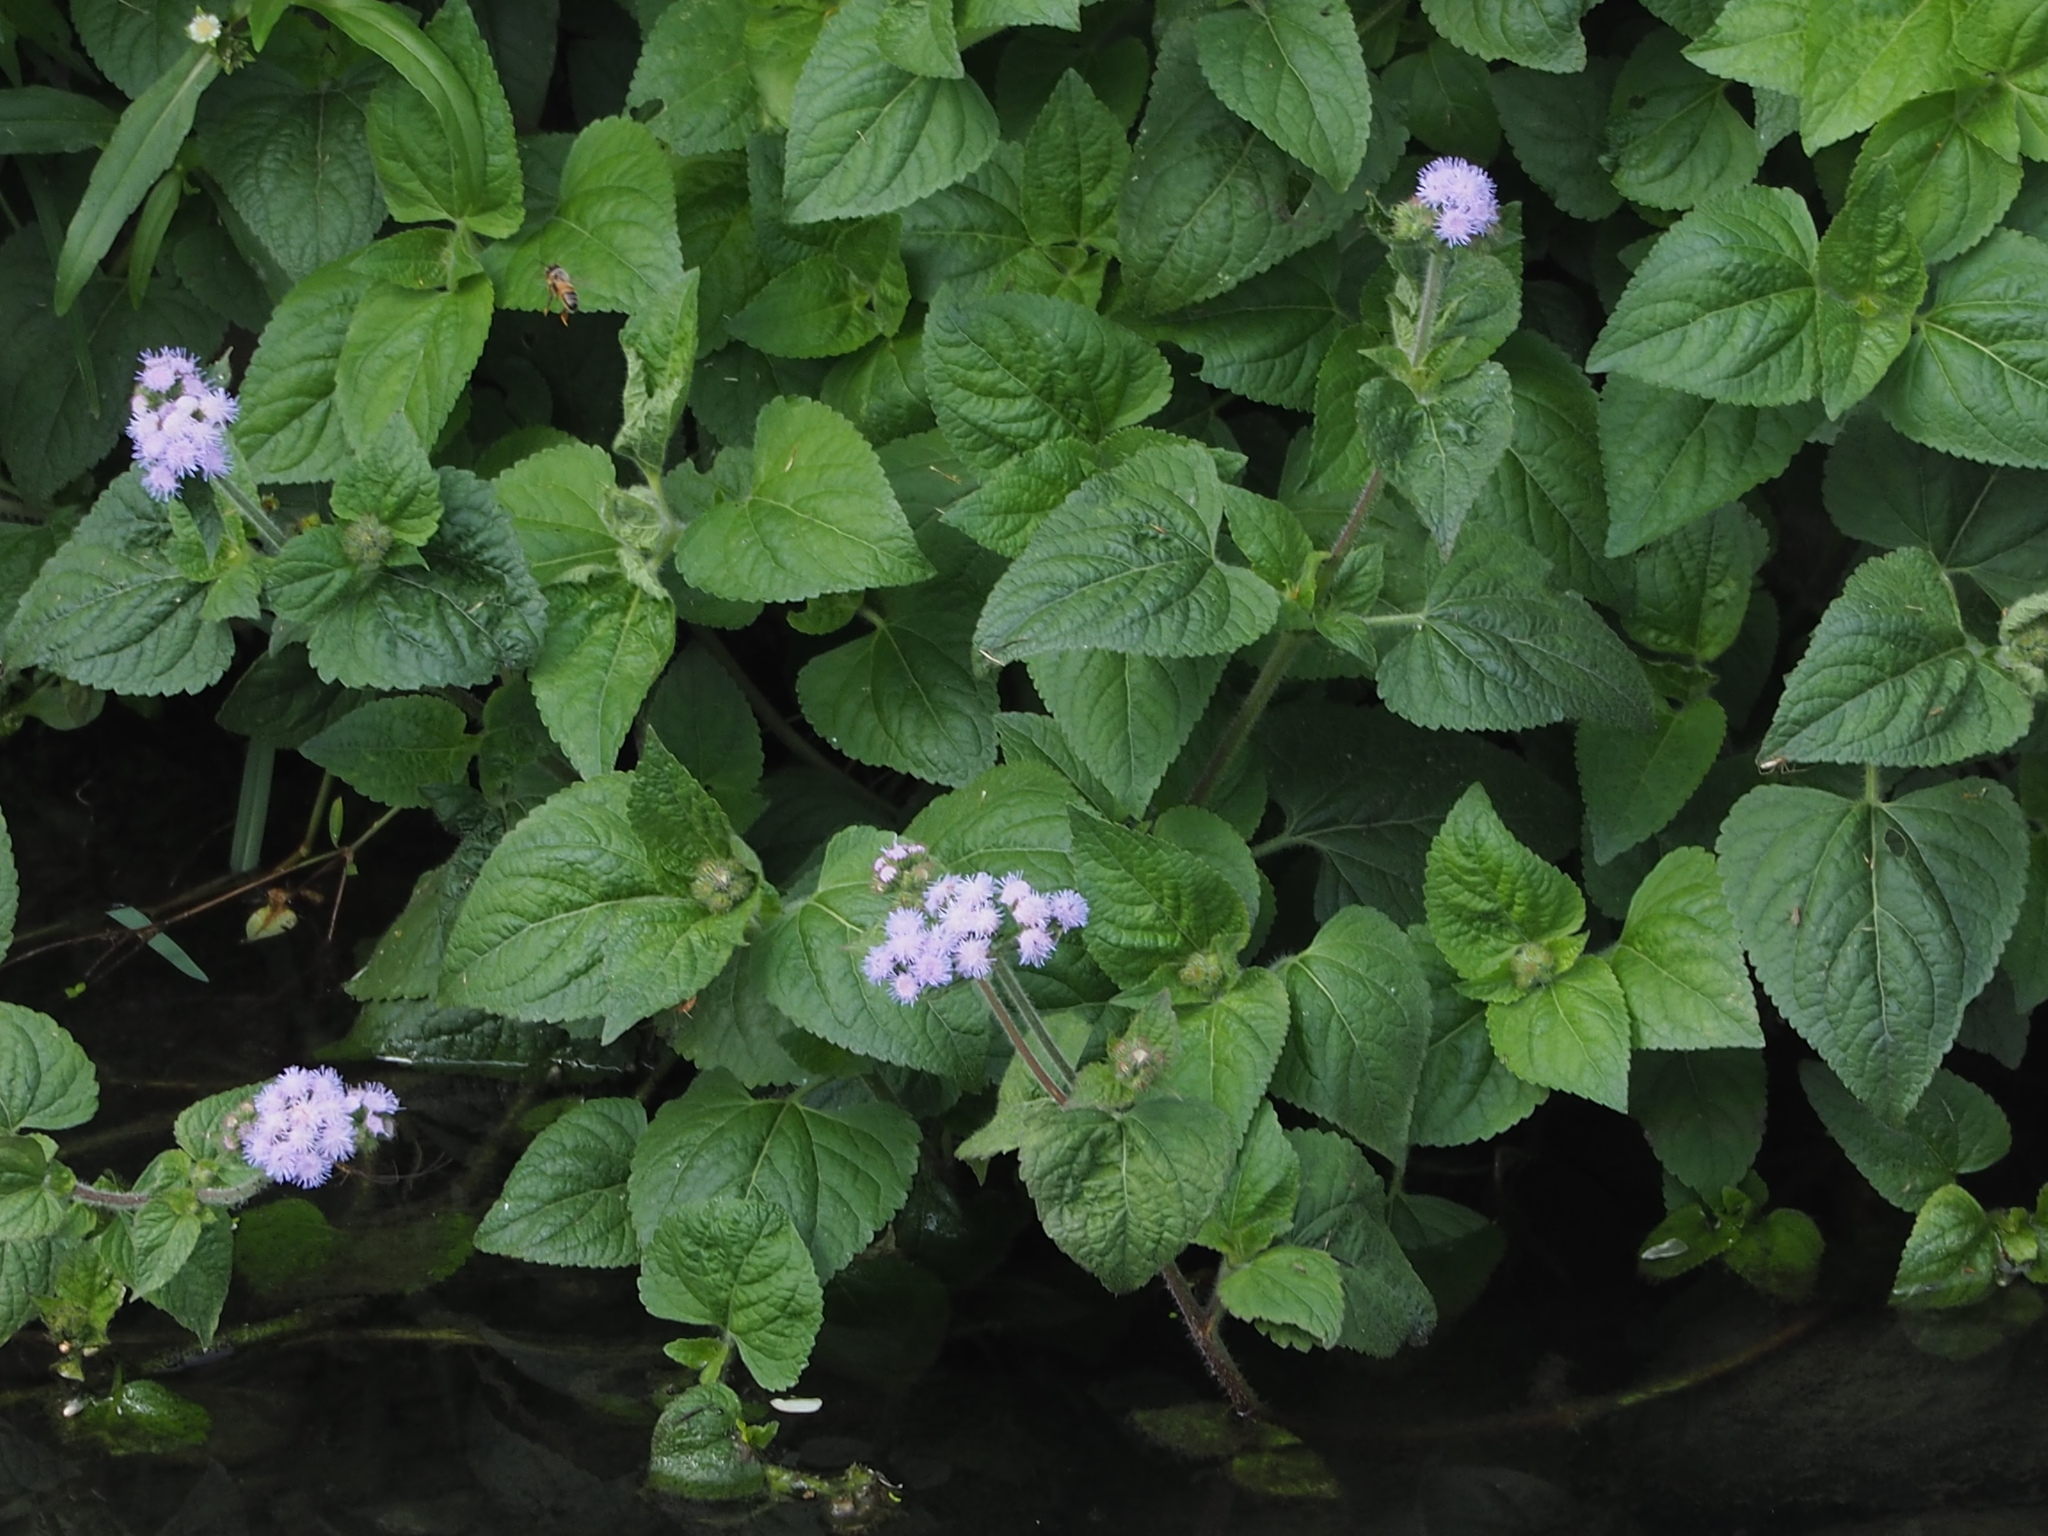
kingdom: Plantae
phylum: Tracheophyta
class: Magnoliopsida
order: Asterales
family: Asteraceae
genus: Ageratum
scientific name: Ageratum houstonianum
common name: Bluemink
